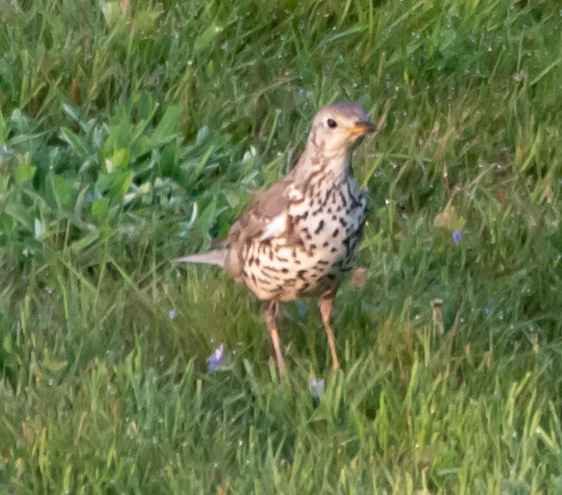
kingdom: Animalia
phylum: Chordata
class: Aves
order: Passeriformes
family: Turdidae
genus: Turdus
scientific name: Turdus viscivorus
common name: Mistle thrush
